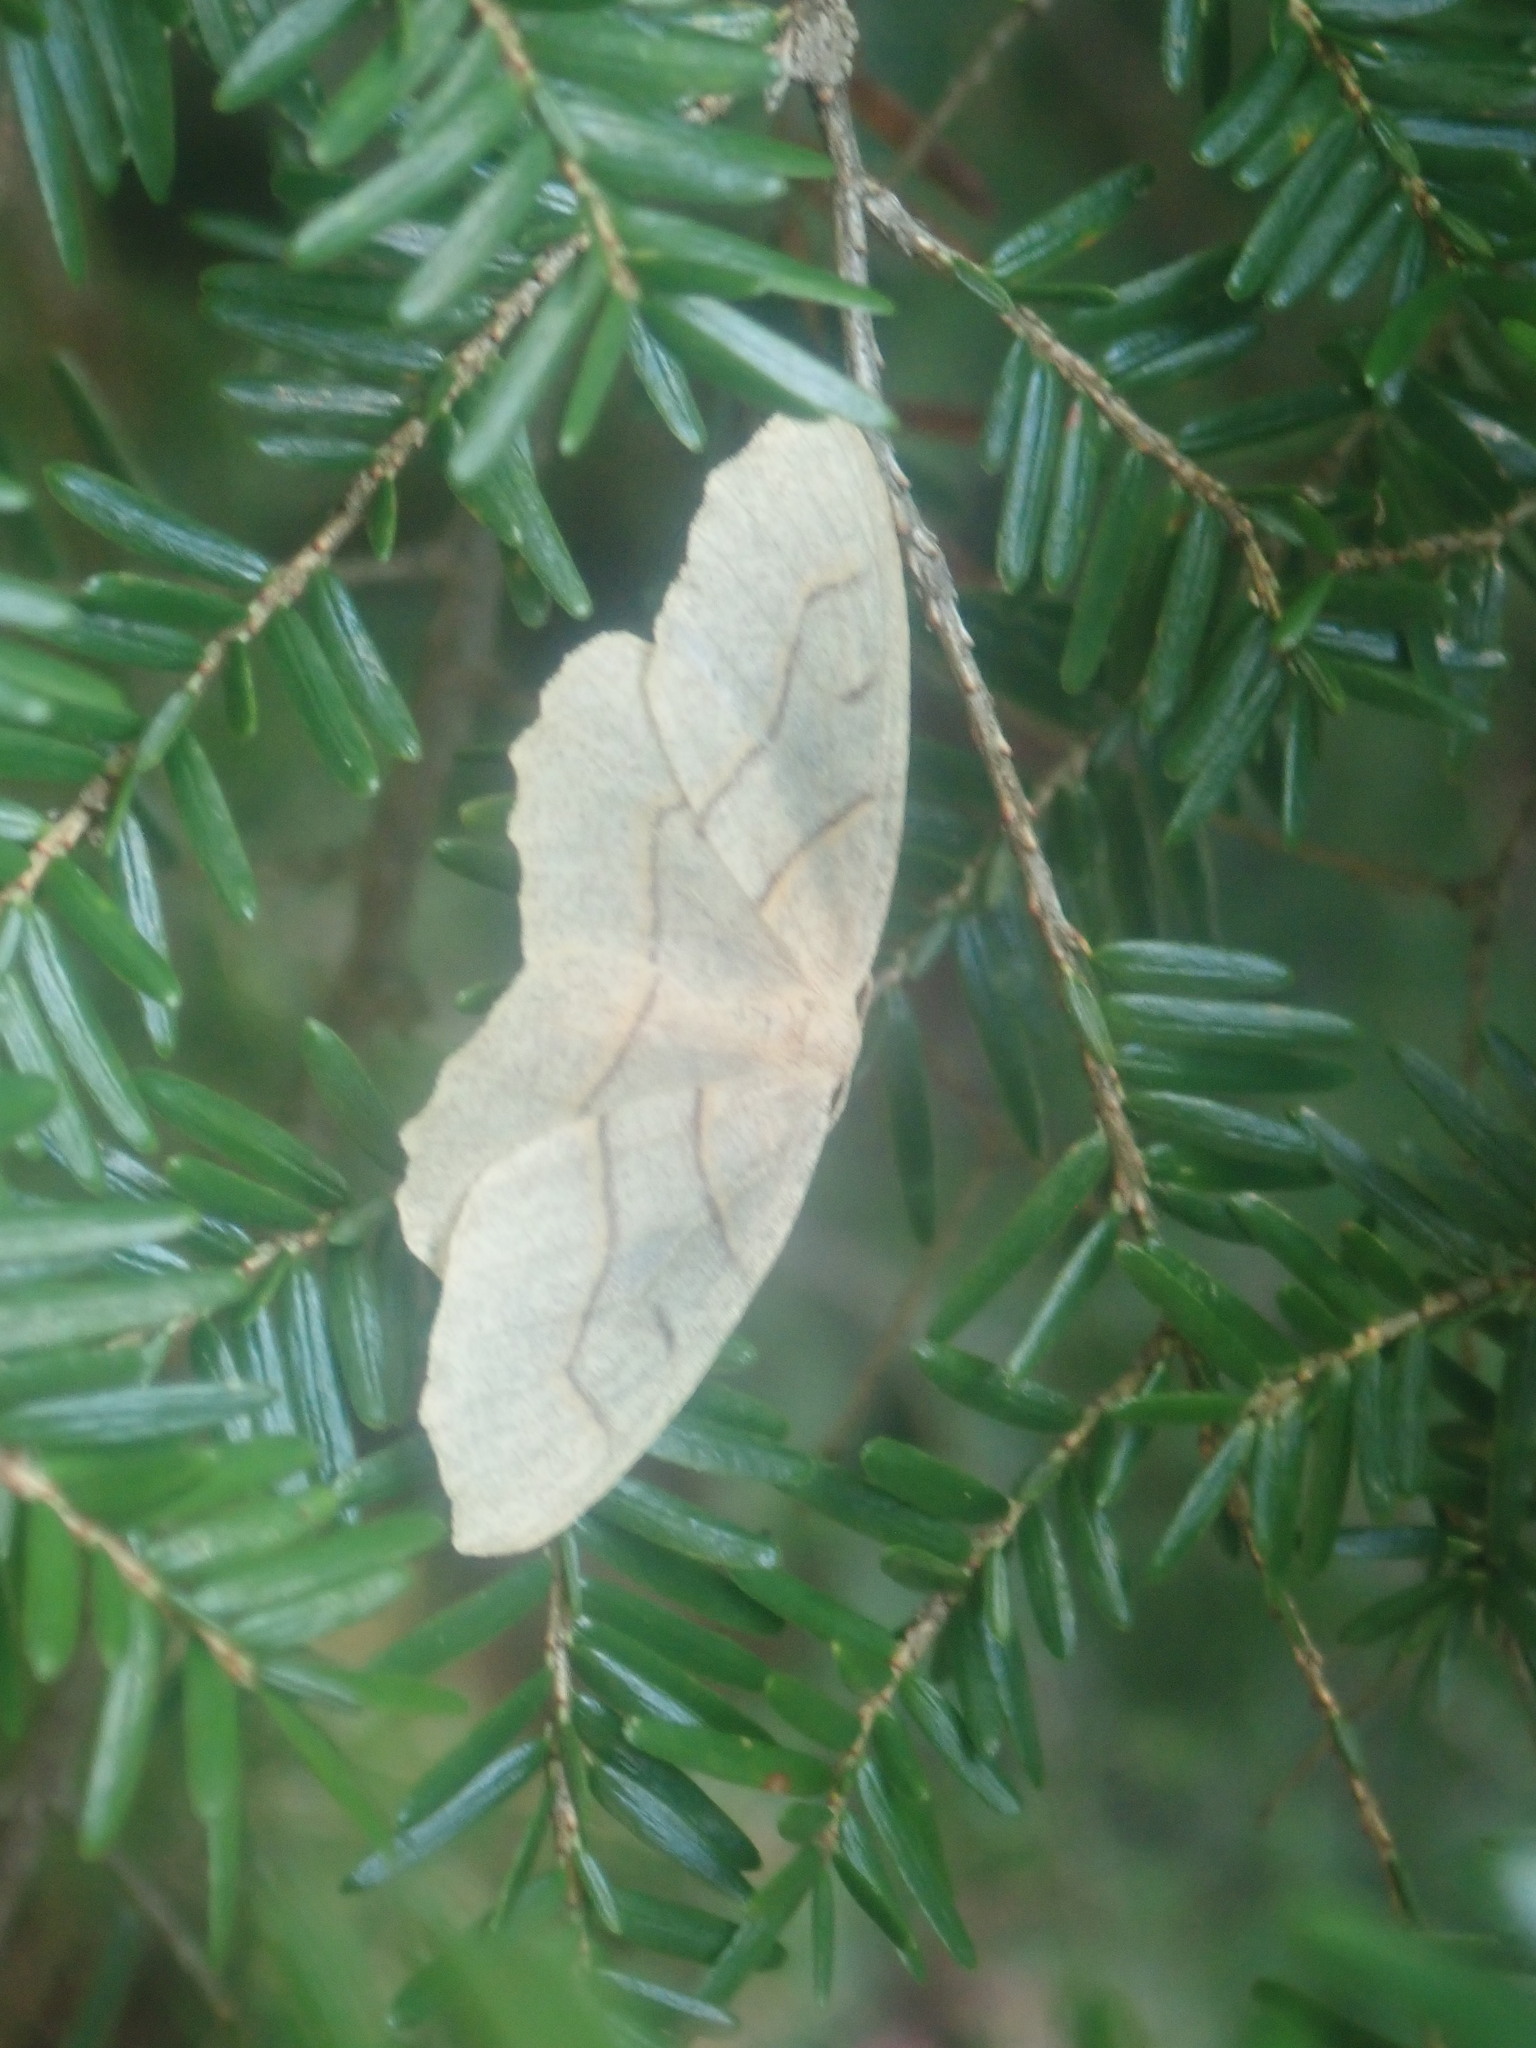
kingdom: Animalia
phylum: Arthropoda
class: Insecta
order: Lepidoptera
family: Geometridae
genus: Lambdina
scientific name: Lambdina fiscellaria
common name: Hemlock looper
